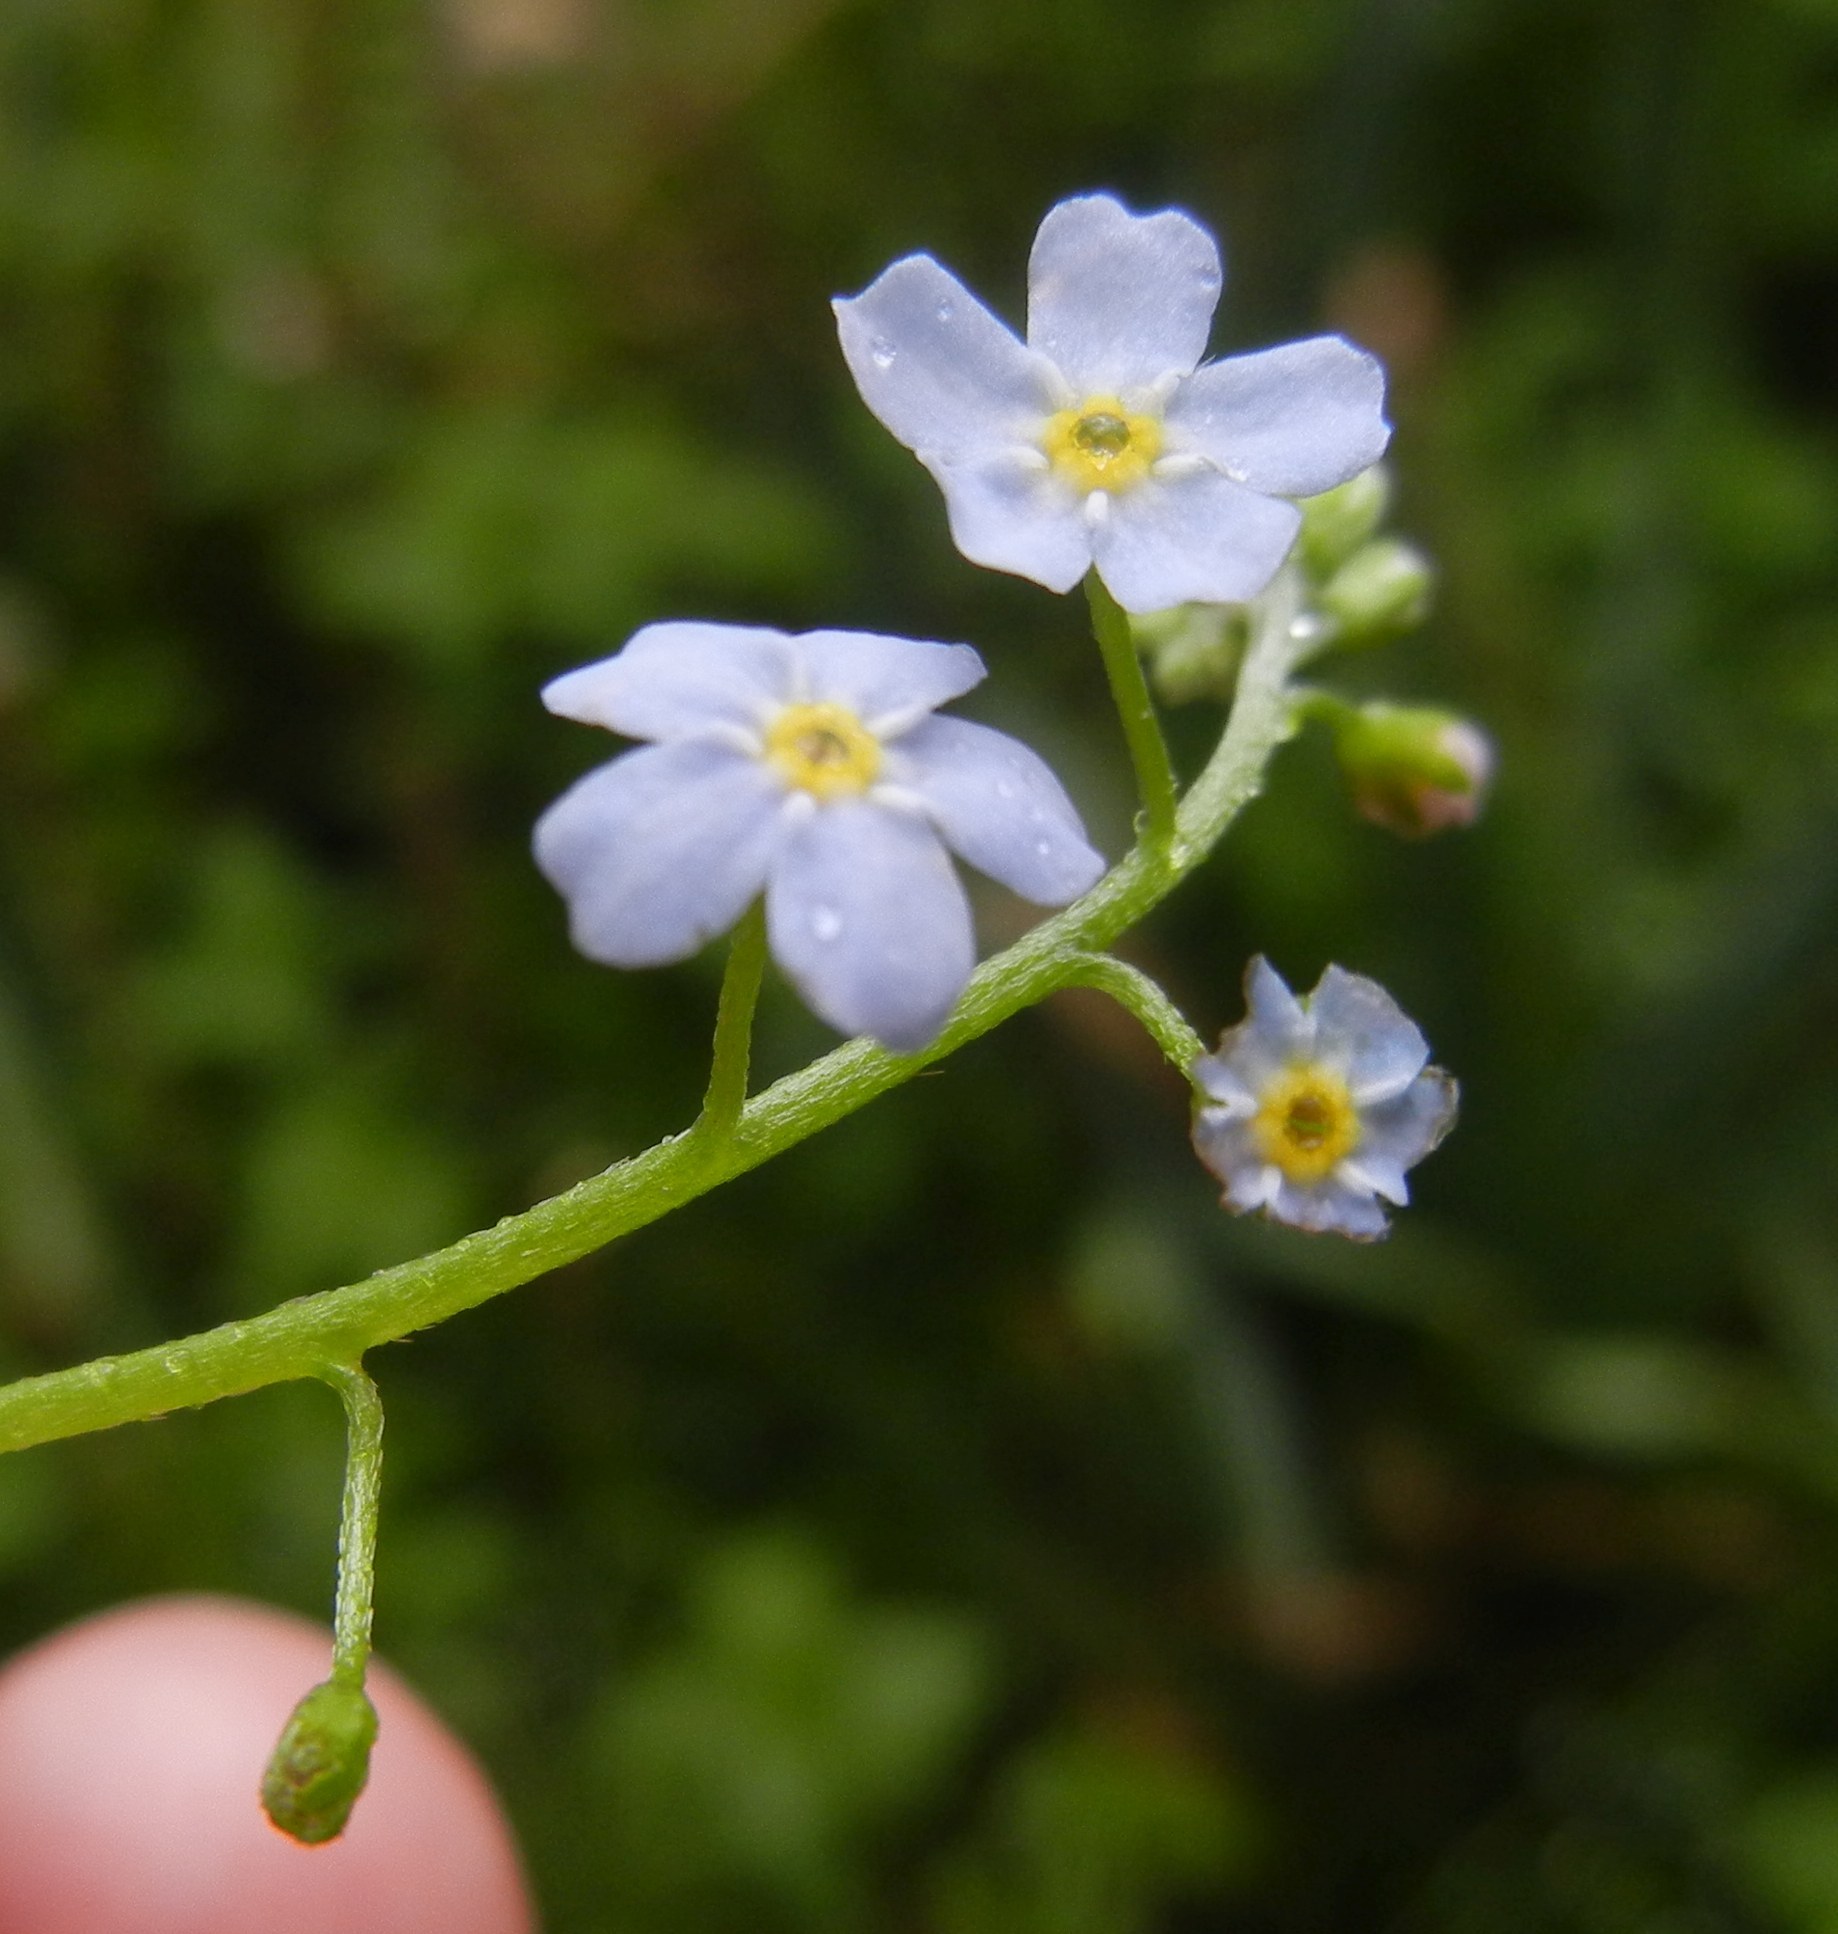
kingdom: Plantae
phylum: Tracheophyta
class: Magnoliopsida
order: Boraginales
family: Boraginaceae
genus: Myosotis
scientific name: Myosotis scorpioides
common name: Water forget-me-not
